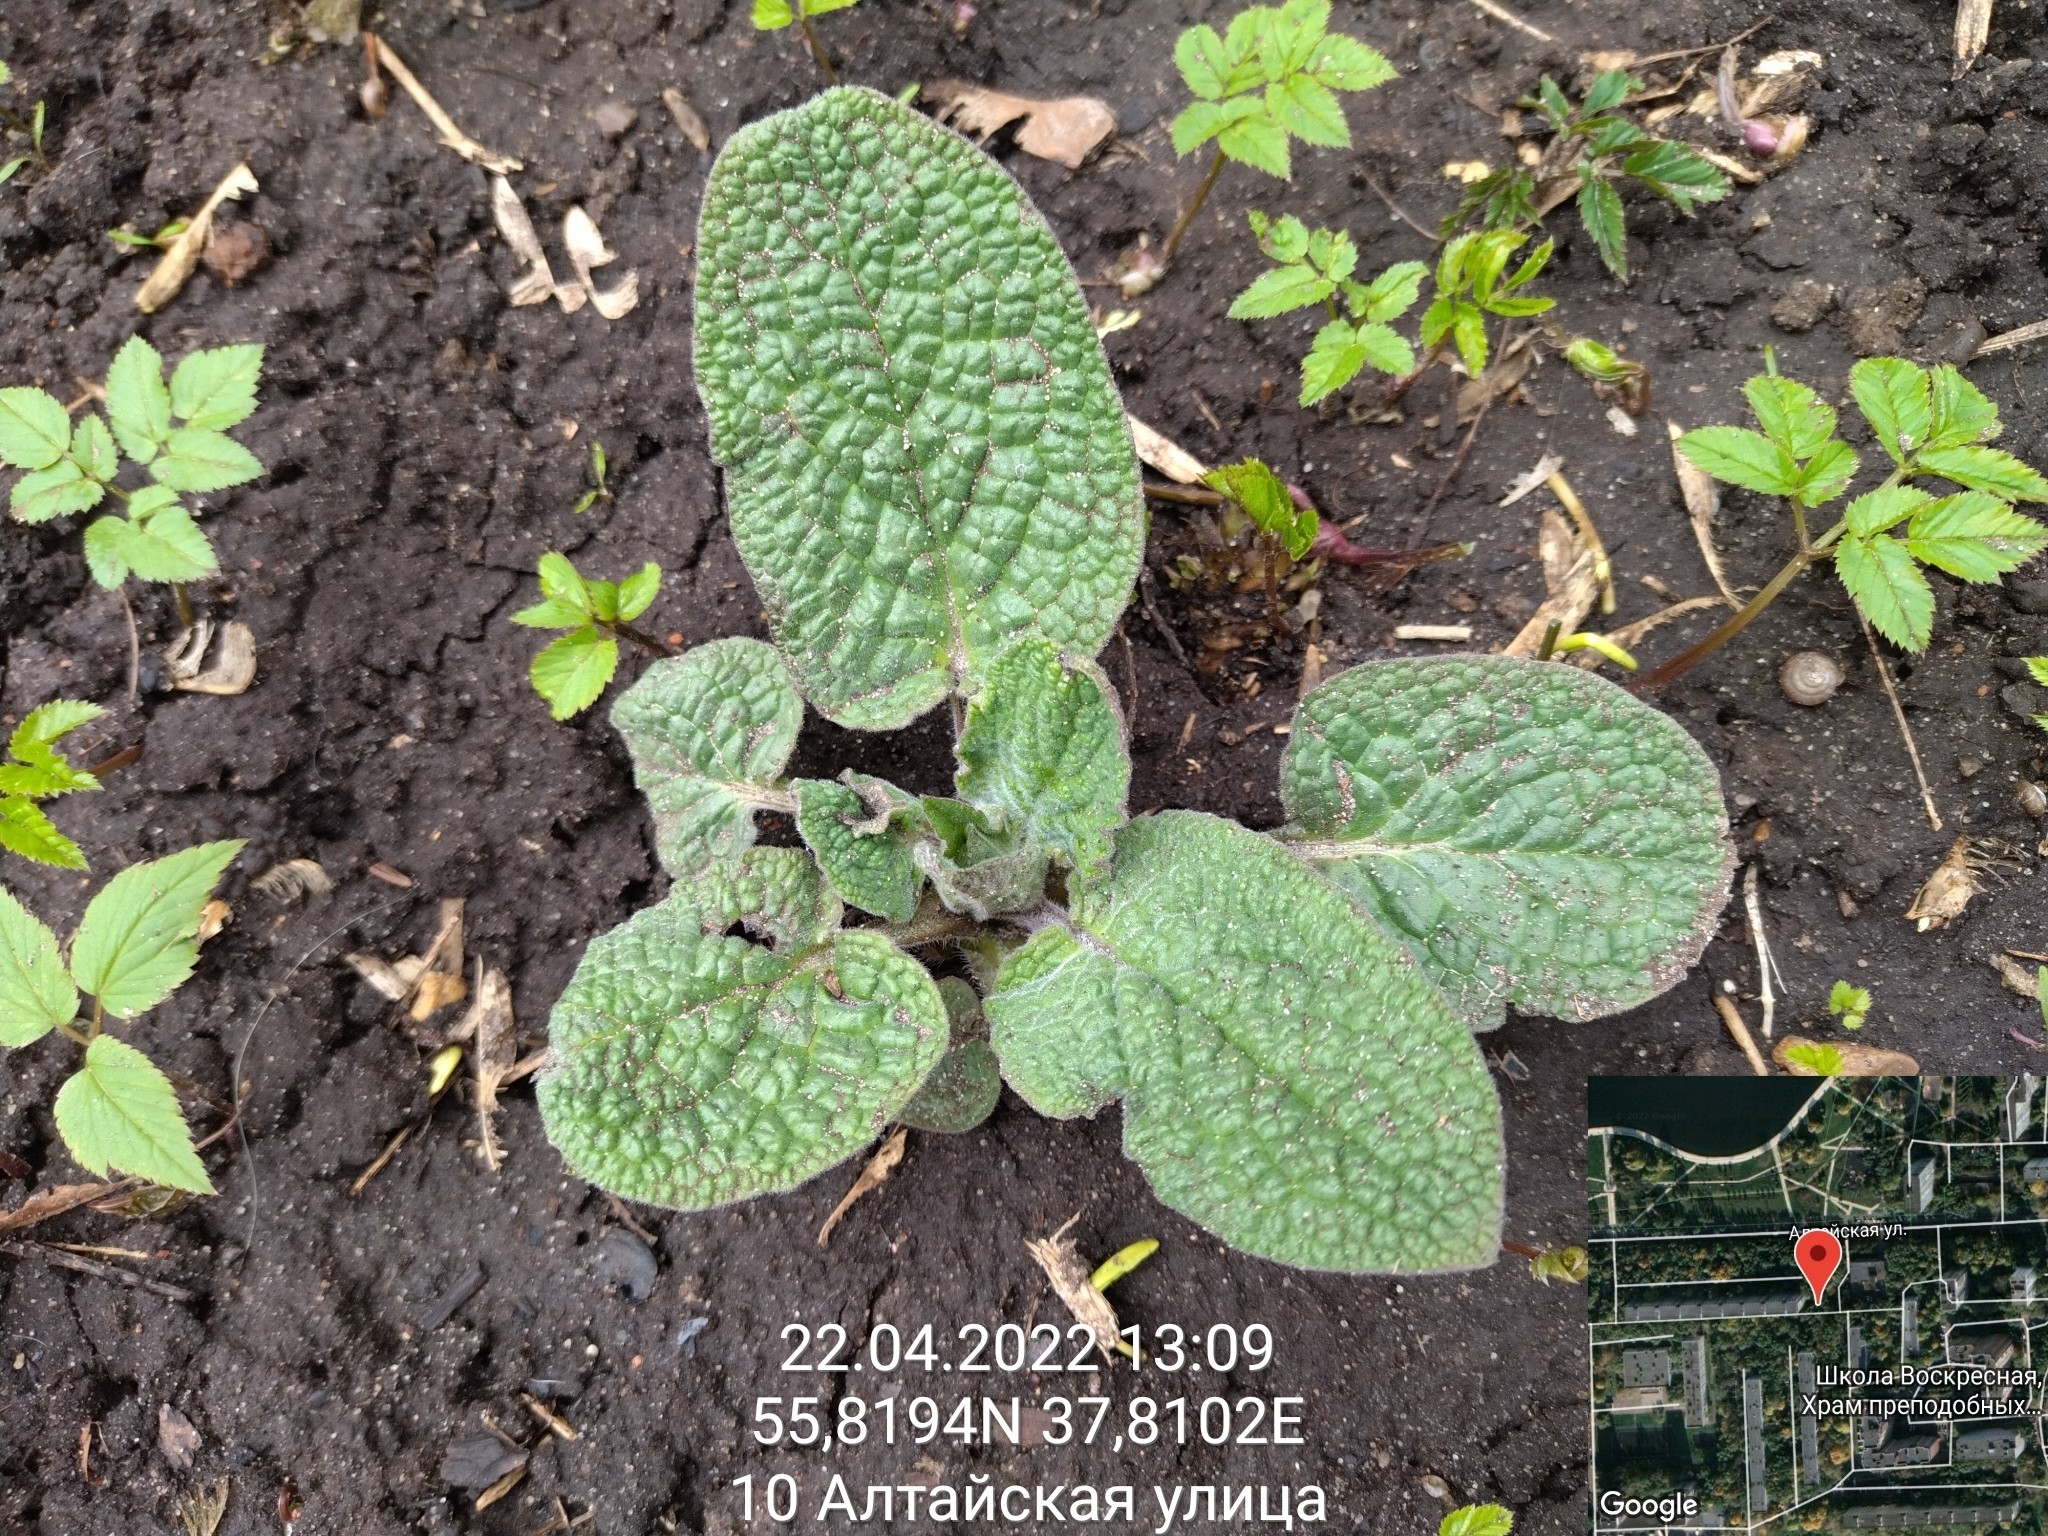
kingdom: Plantae
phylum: Tracheophyta
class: Magnoliopsida
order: Boraginales
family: Boraginaceae
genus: Symphytum
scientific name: Symphytum
